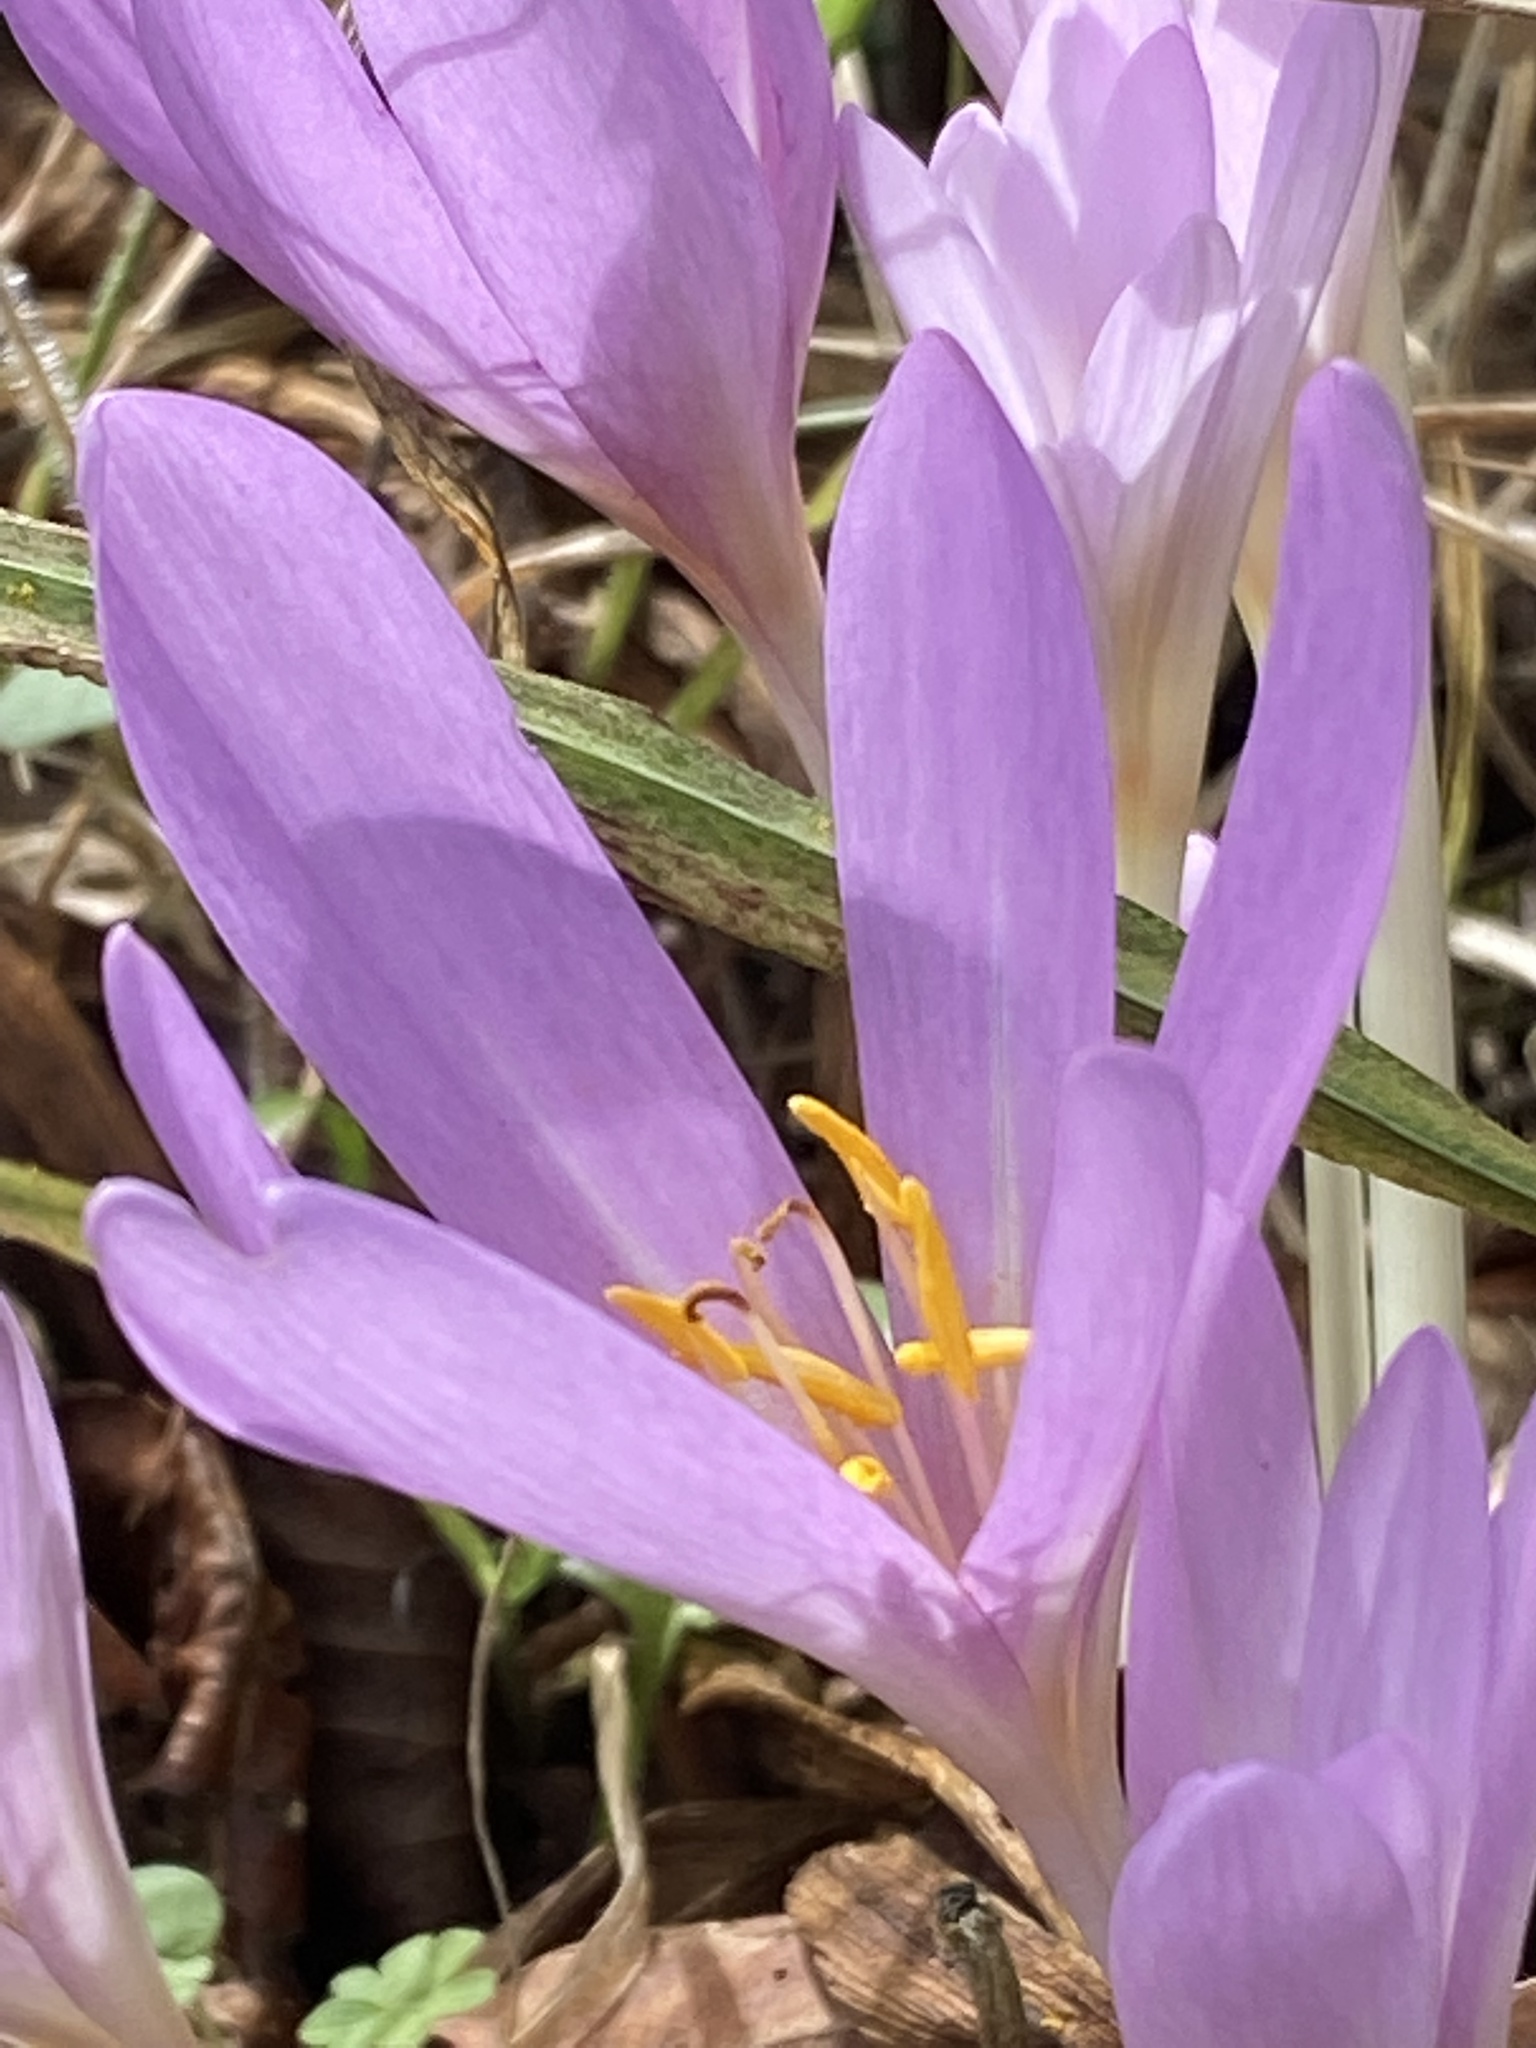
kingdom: Plantae
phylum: Tracheophyta
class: Liliopsida
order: Liliales
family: Colchicaceae
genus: Colchicum
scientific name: Colchicum autumnale
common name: Autumn crocus
